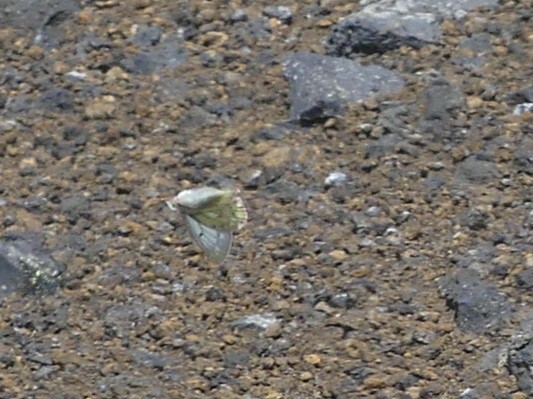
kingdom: Animalia
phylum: Arthropoda
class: Insecta
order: Lepidoptera
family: Pieridae
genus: Colias
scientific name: Colias nastes
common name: Labrador sulphur
